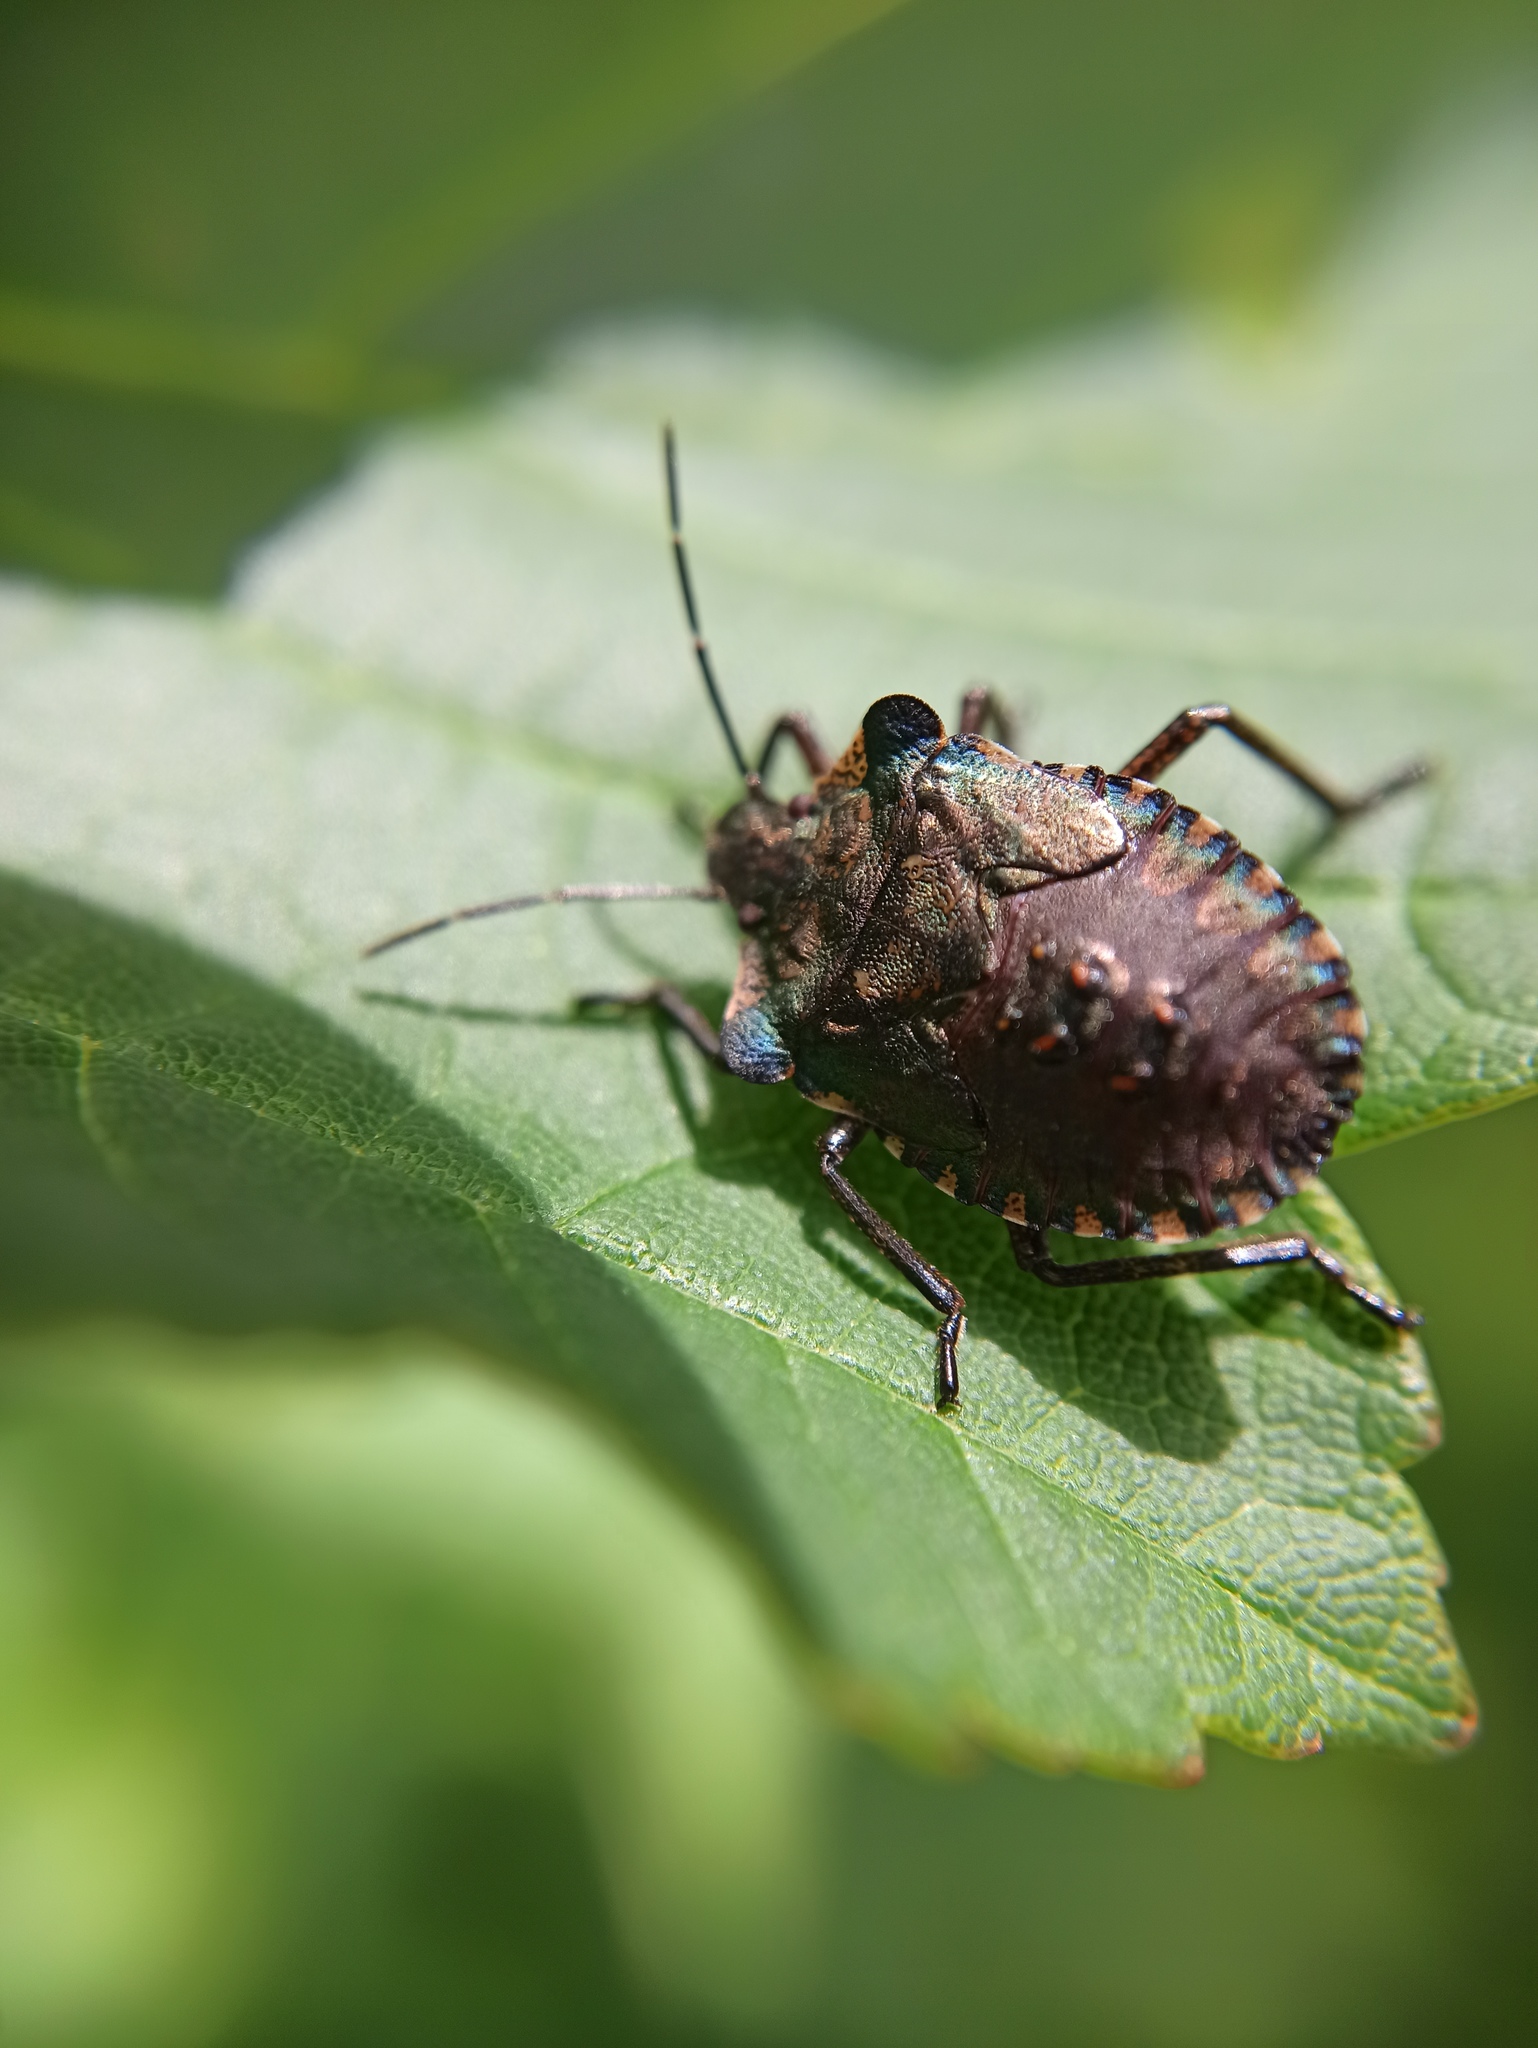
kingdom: Animalia
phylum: Arthropoda
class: Insecta
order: Hemiptera
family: Pentatomidae
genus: Pentatoma
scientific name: Pentatoma rufipes
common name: Forest bug
